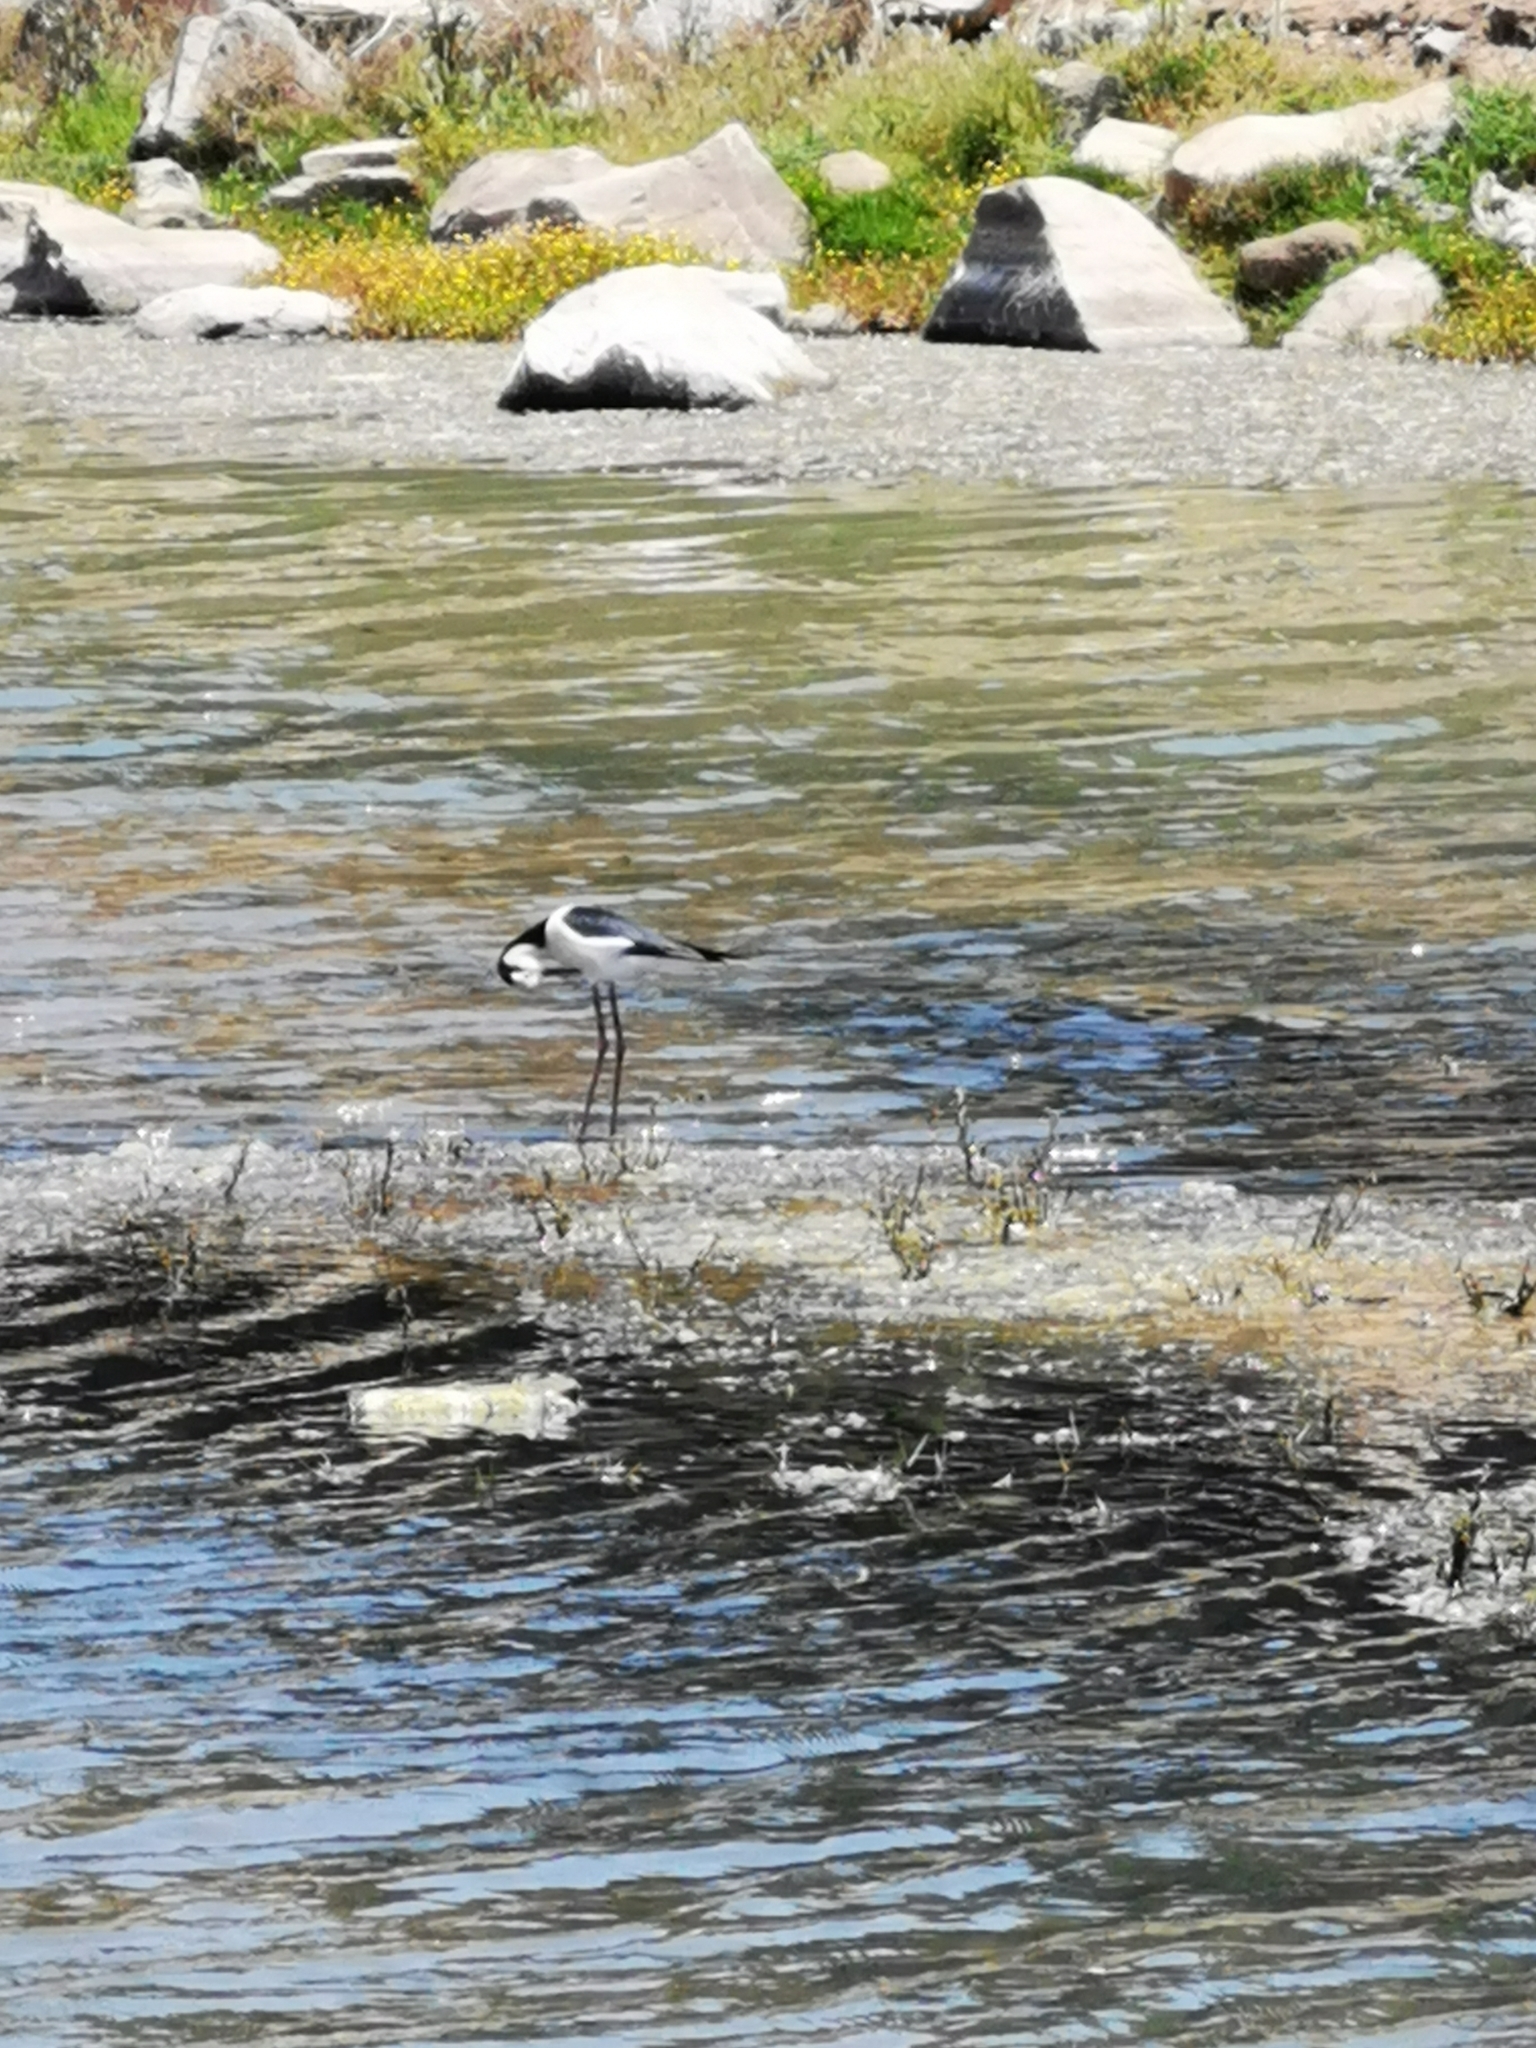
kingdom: Animalia
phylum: Chordata
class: Aves
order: Charadriiformes
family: Recurvirostridae
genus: Himantopus
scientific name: Himantopus mexicanus
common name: Black-necked stilt
